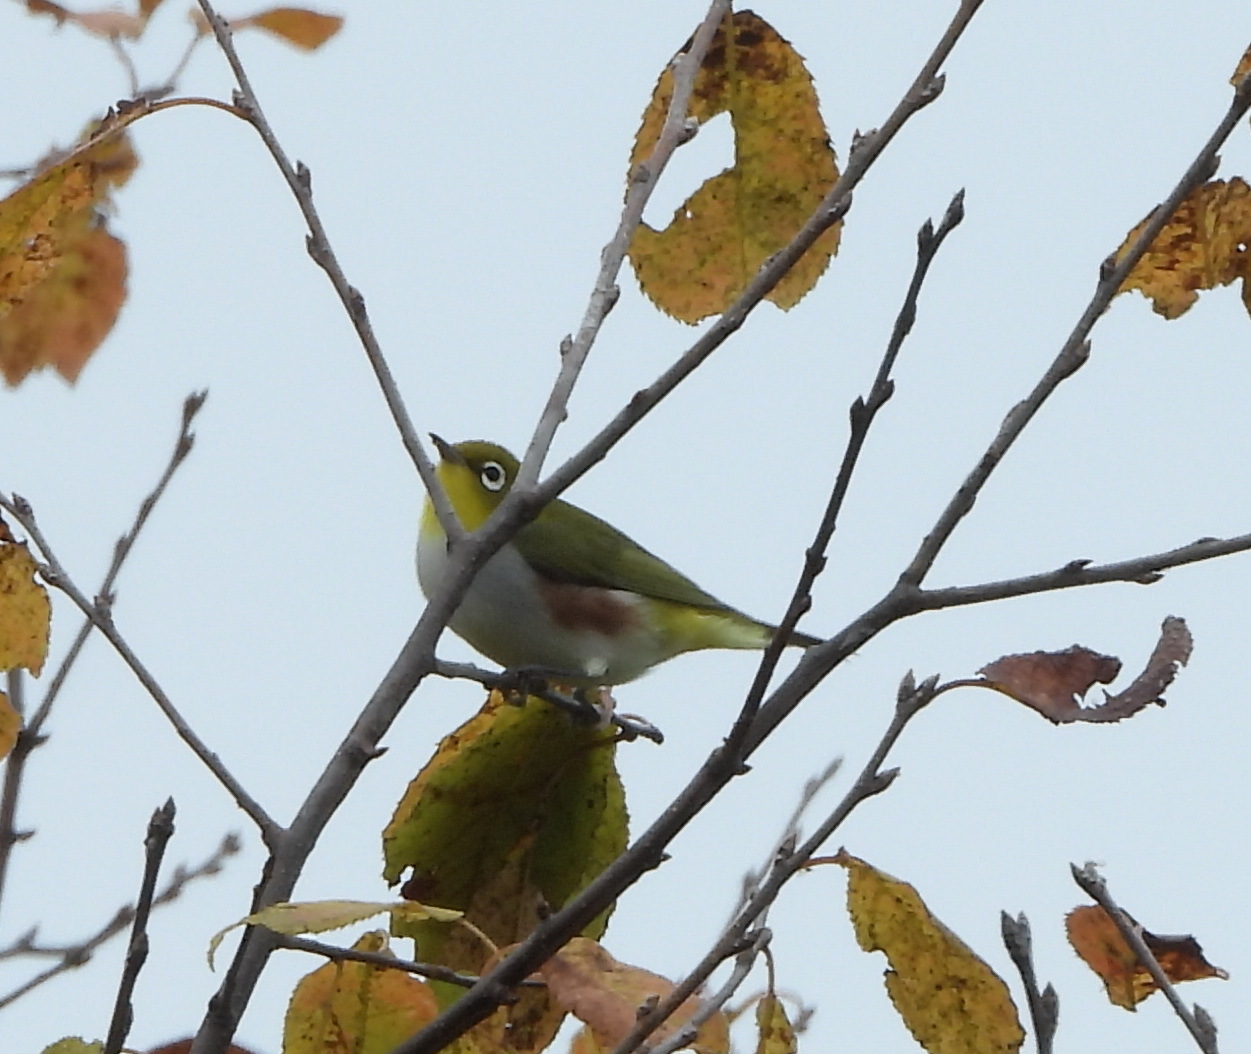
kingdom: Animalia
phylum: Chordata
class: Aves
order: Passeriformes
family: Zosteropidae
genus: Zosterops
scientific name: Zosterops erythropleurus
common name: Chestnut-flanked white-eye
